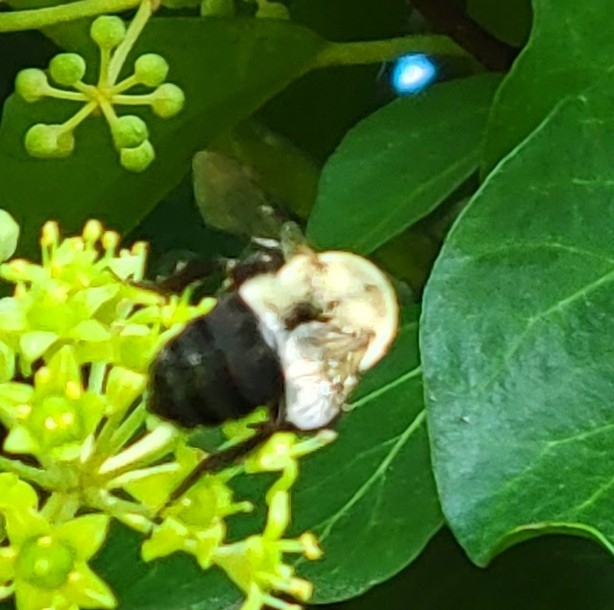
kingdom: Animalia
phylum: Arthropoda
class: Insecta
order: Hymenoptera
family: Apidae
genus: Bombus
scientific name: Bombus impatiens
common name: Common eastern bumble bee
